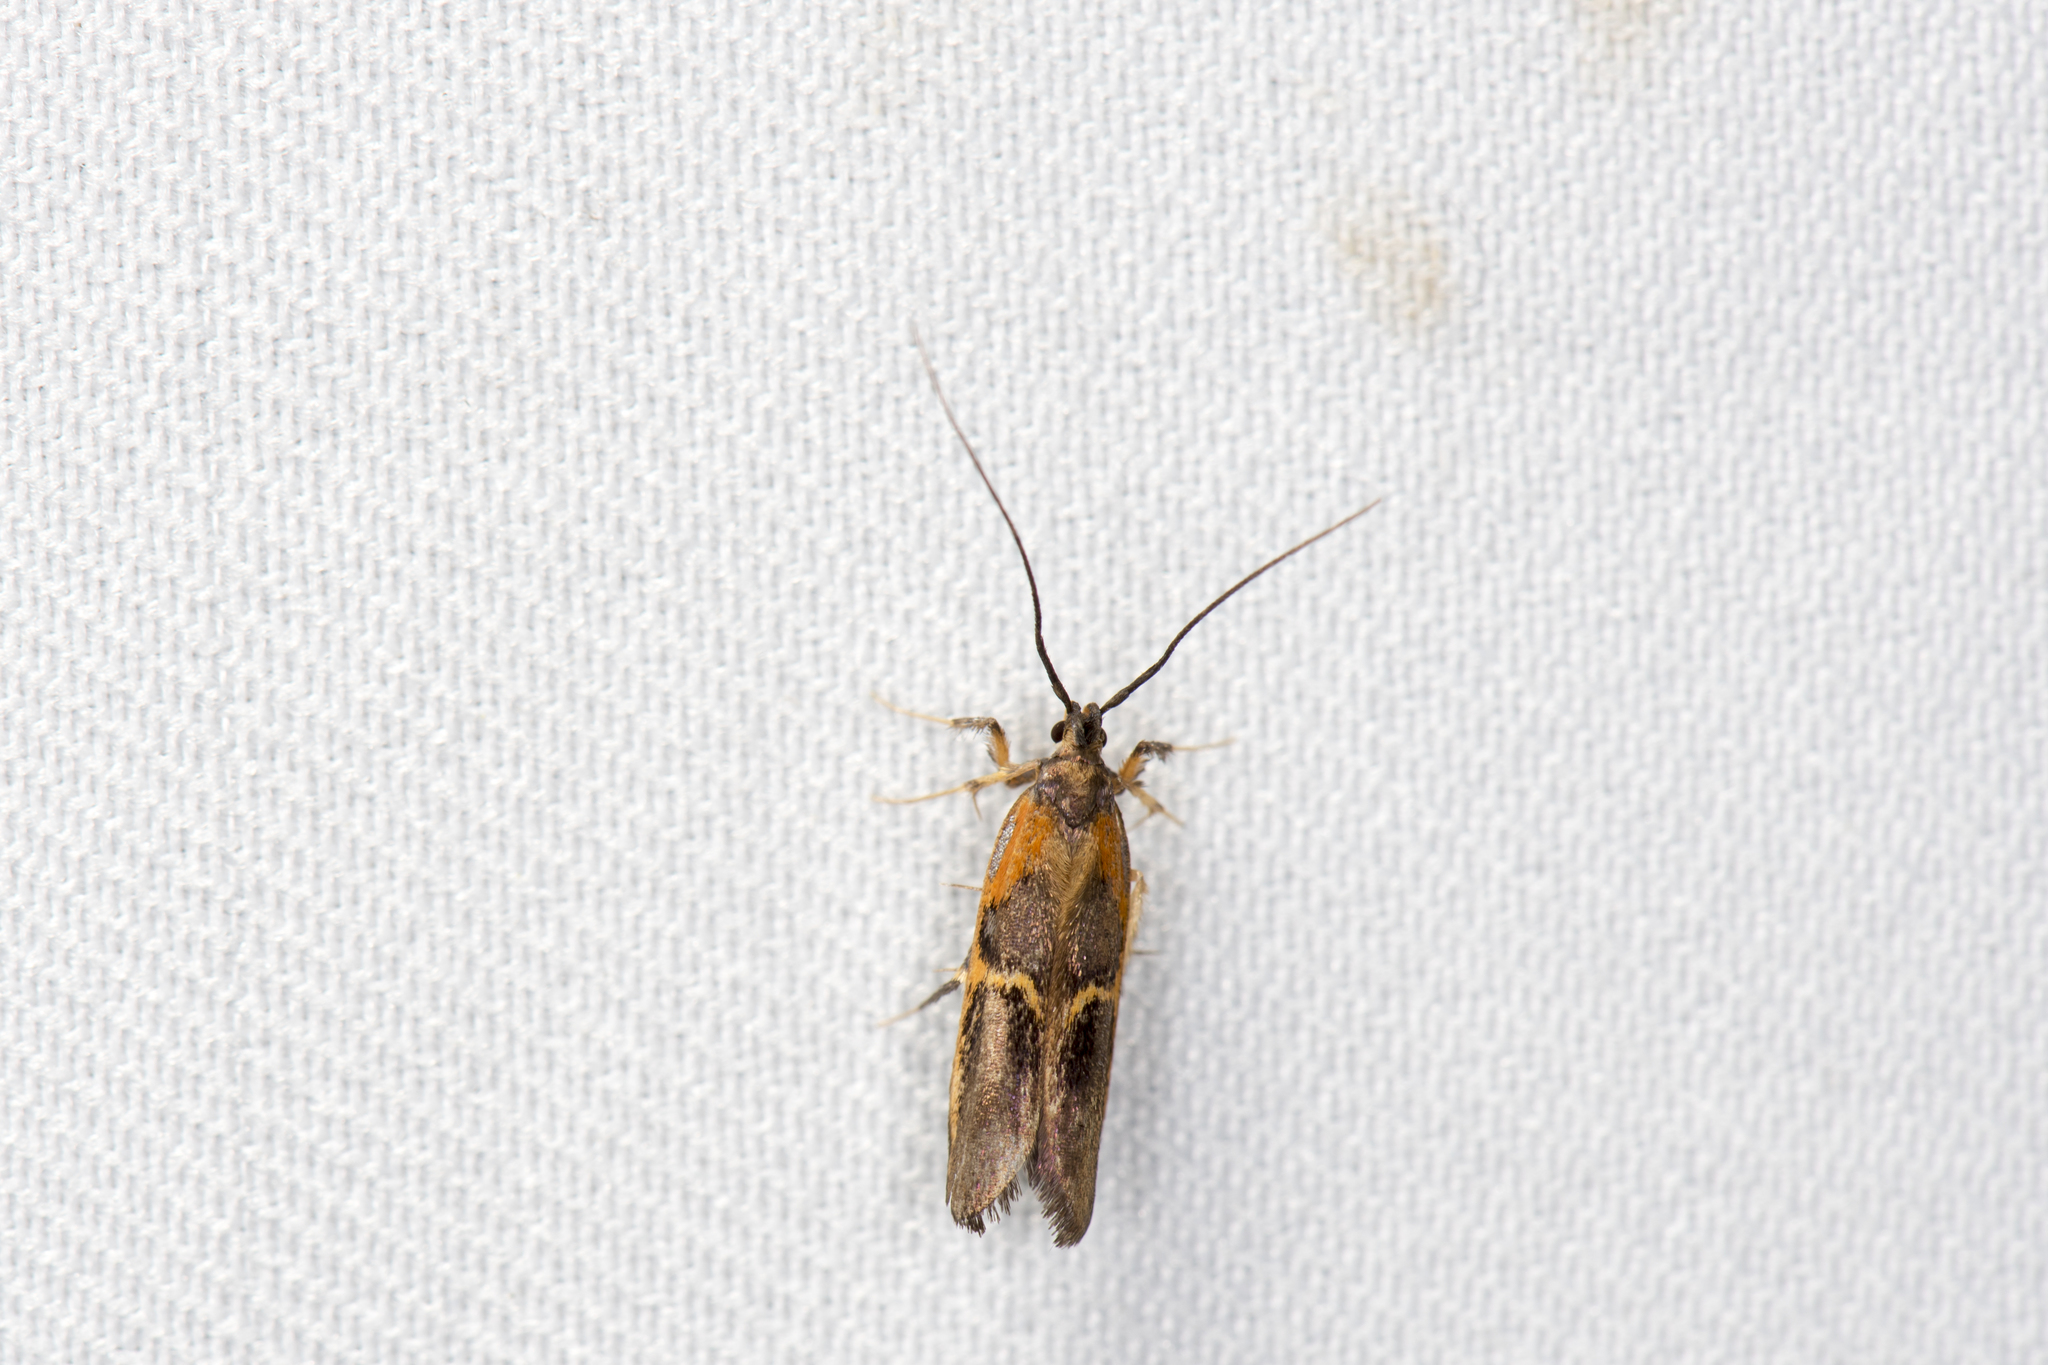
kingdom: Animalia
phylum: Arthropoda
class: Insecta
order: Lepidoptera
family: Lecithoceridae
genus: Tisis
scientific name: Tisis mesozosta
